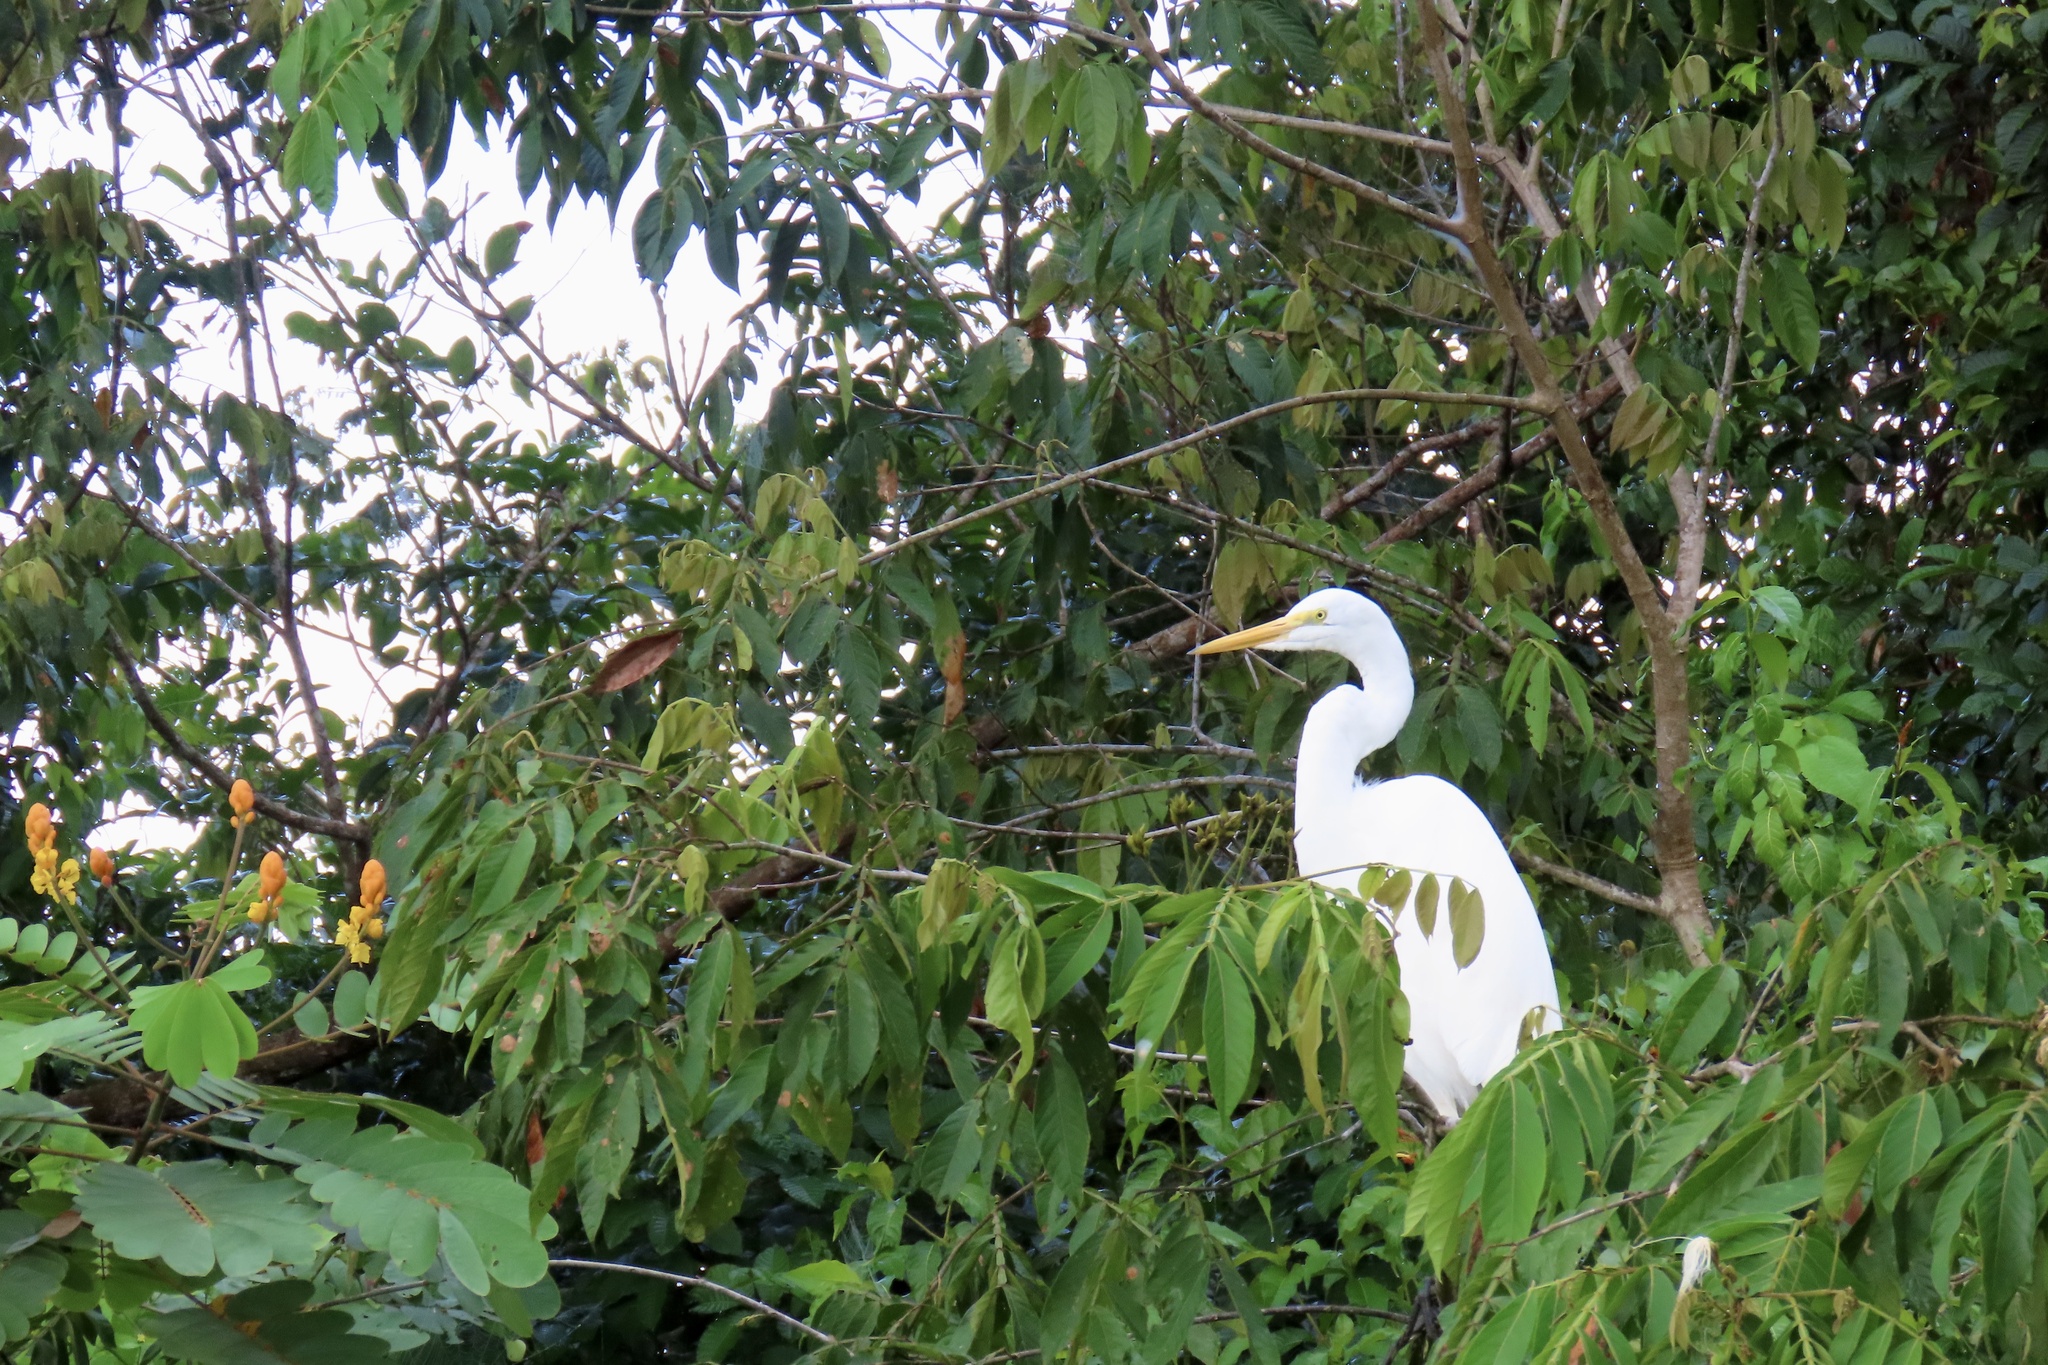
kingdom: Animalia
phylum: Chordata
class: Aves
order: Pelecaniformes
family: Ardeidae
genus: Ardea
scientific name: Ardea alba
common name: Great egret
